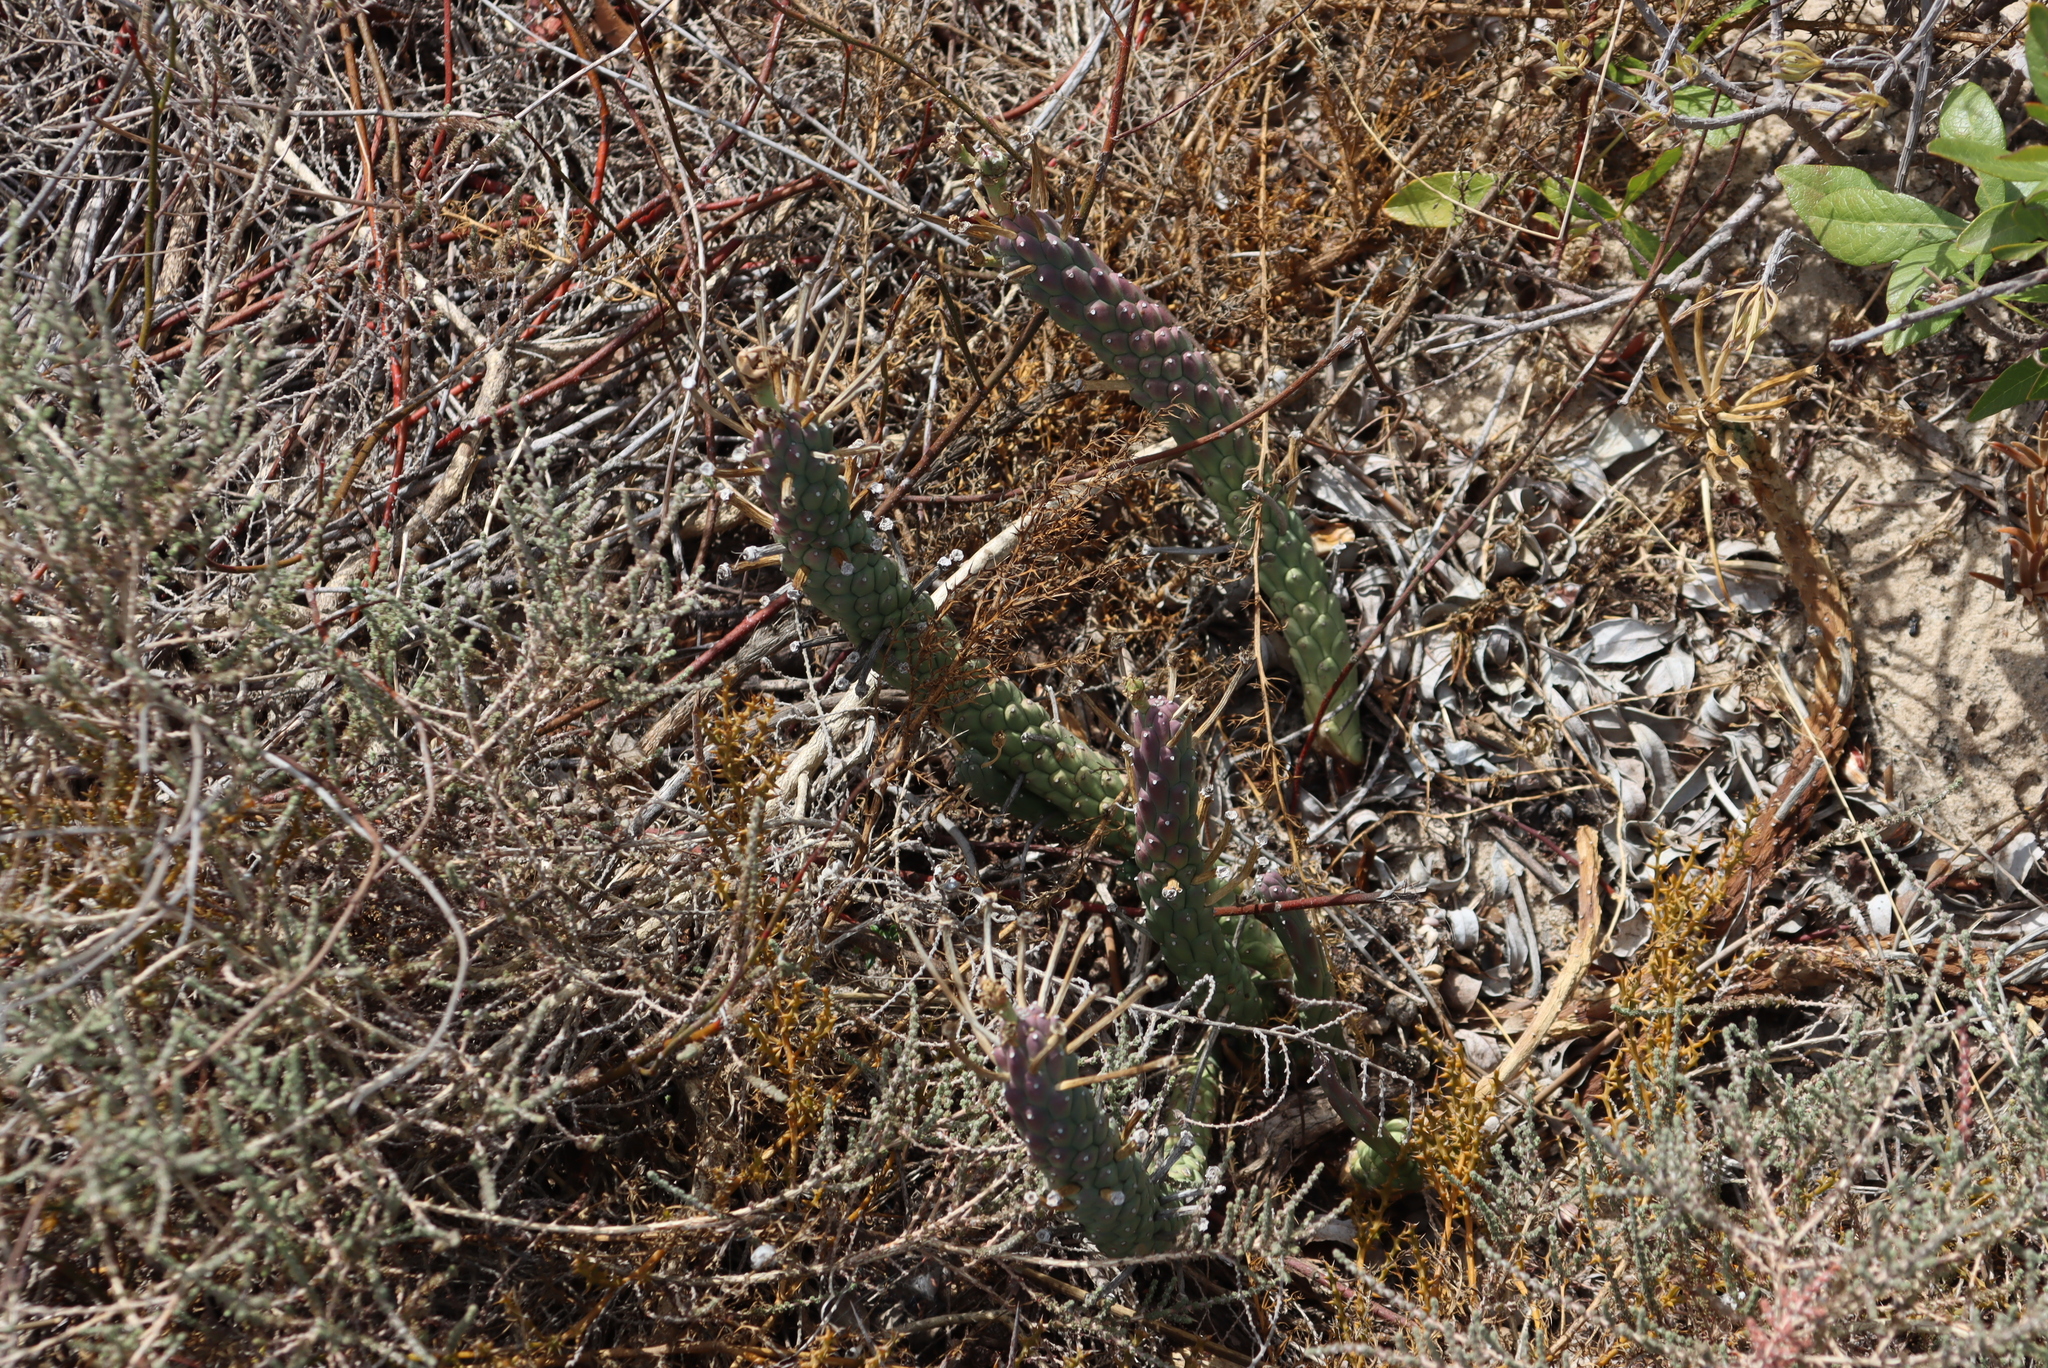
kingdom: Plantae
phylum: Tracheophyta
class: Magnoliopsida
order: Malpighiales
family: Euphorbiaceae
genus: Euphorbia
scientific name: Euphorbia caput-medusae
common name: Medusa's-head
